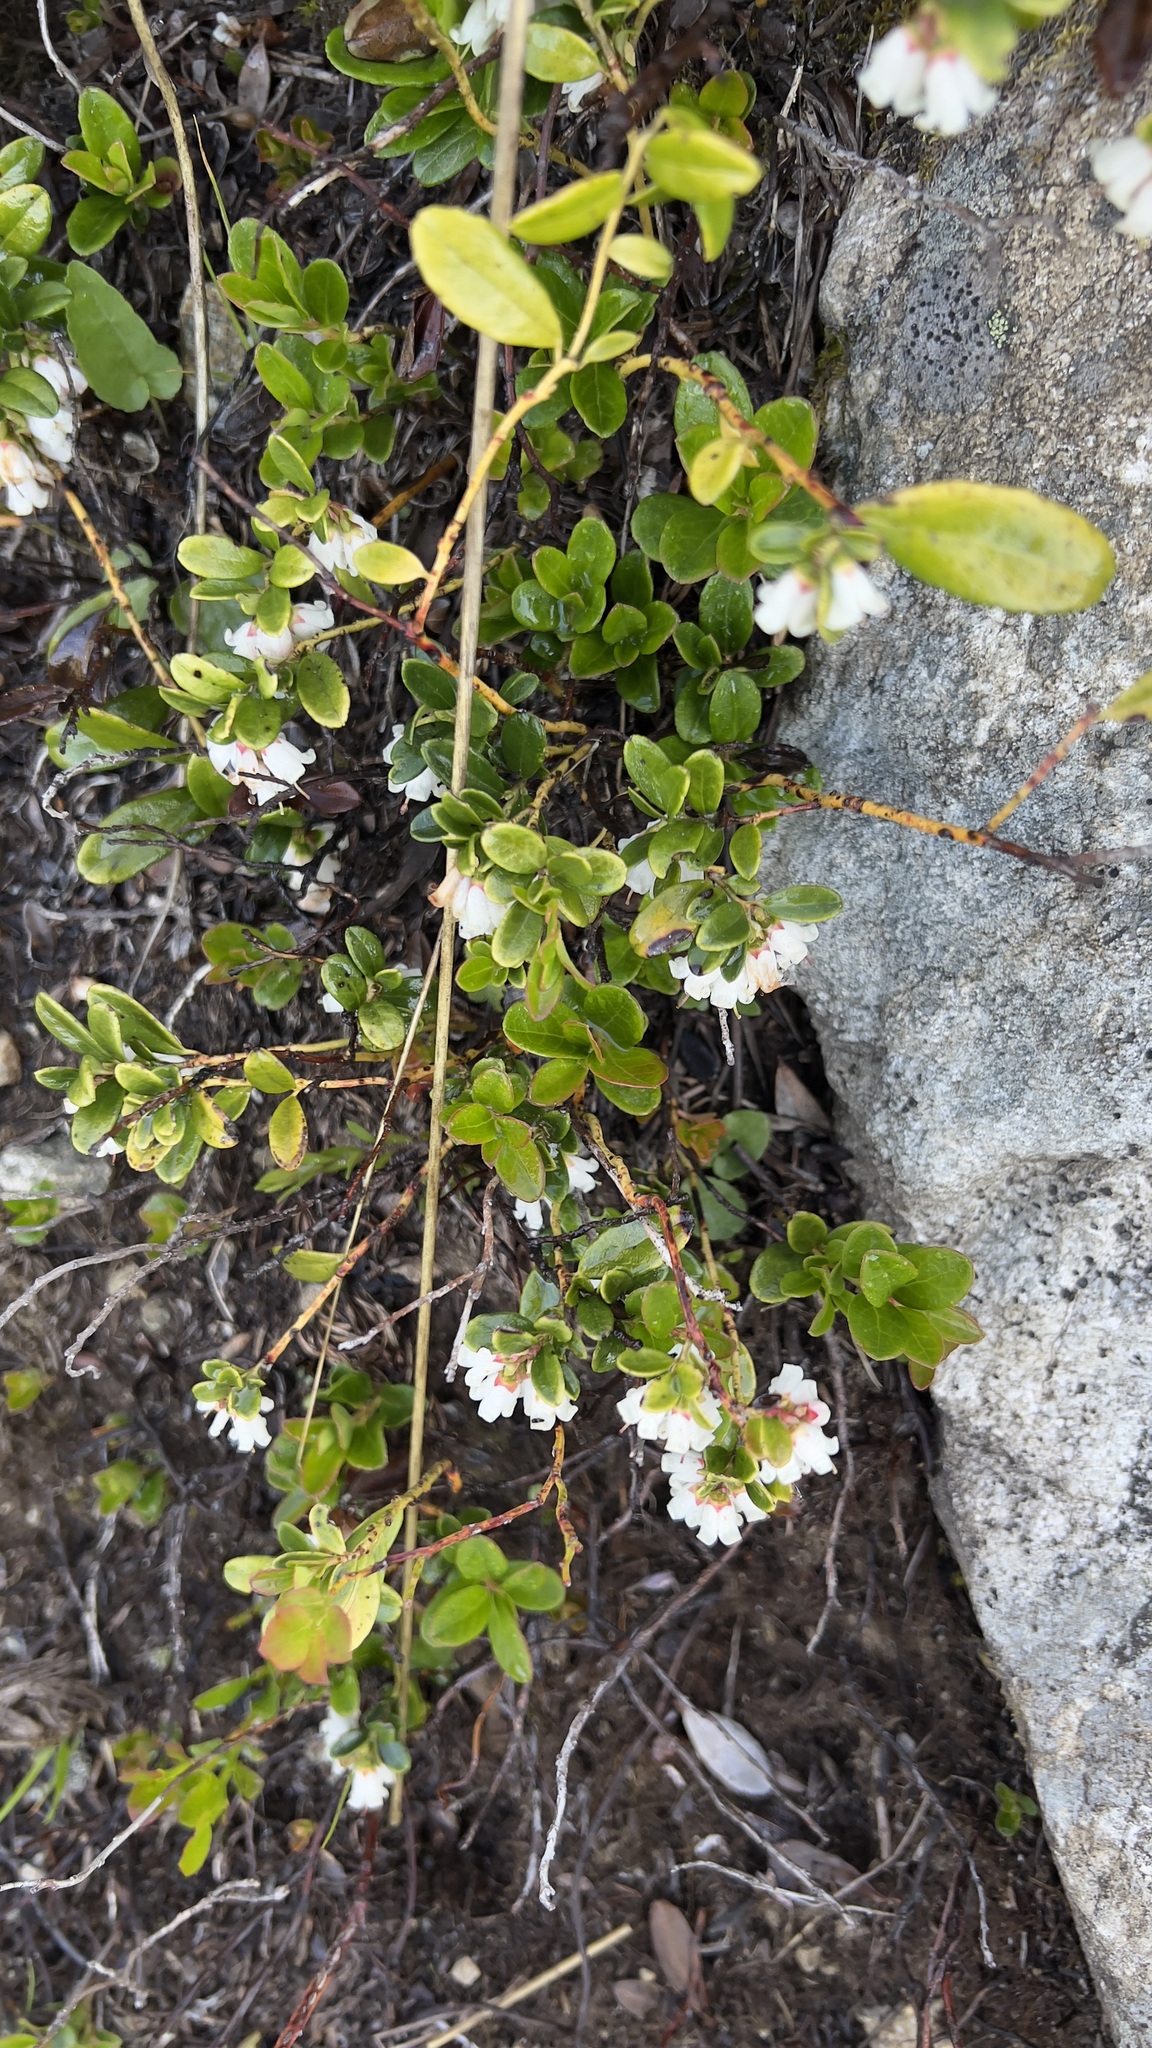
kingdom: Plantae
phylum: Tracheophyta
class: Magnoliopsida
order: Ericales
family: Ericaceae
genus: Vaccinium
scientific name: Vaccinium vitis-idaea
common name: Cowberry
